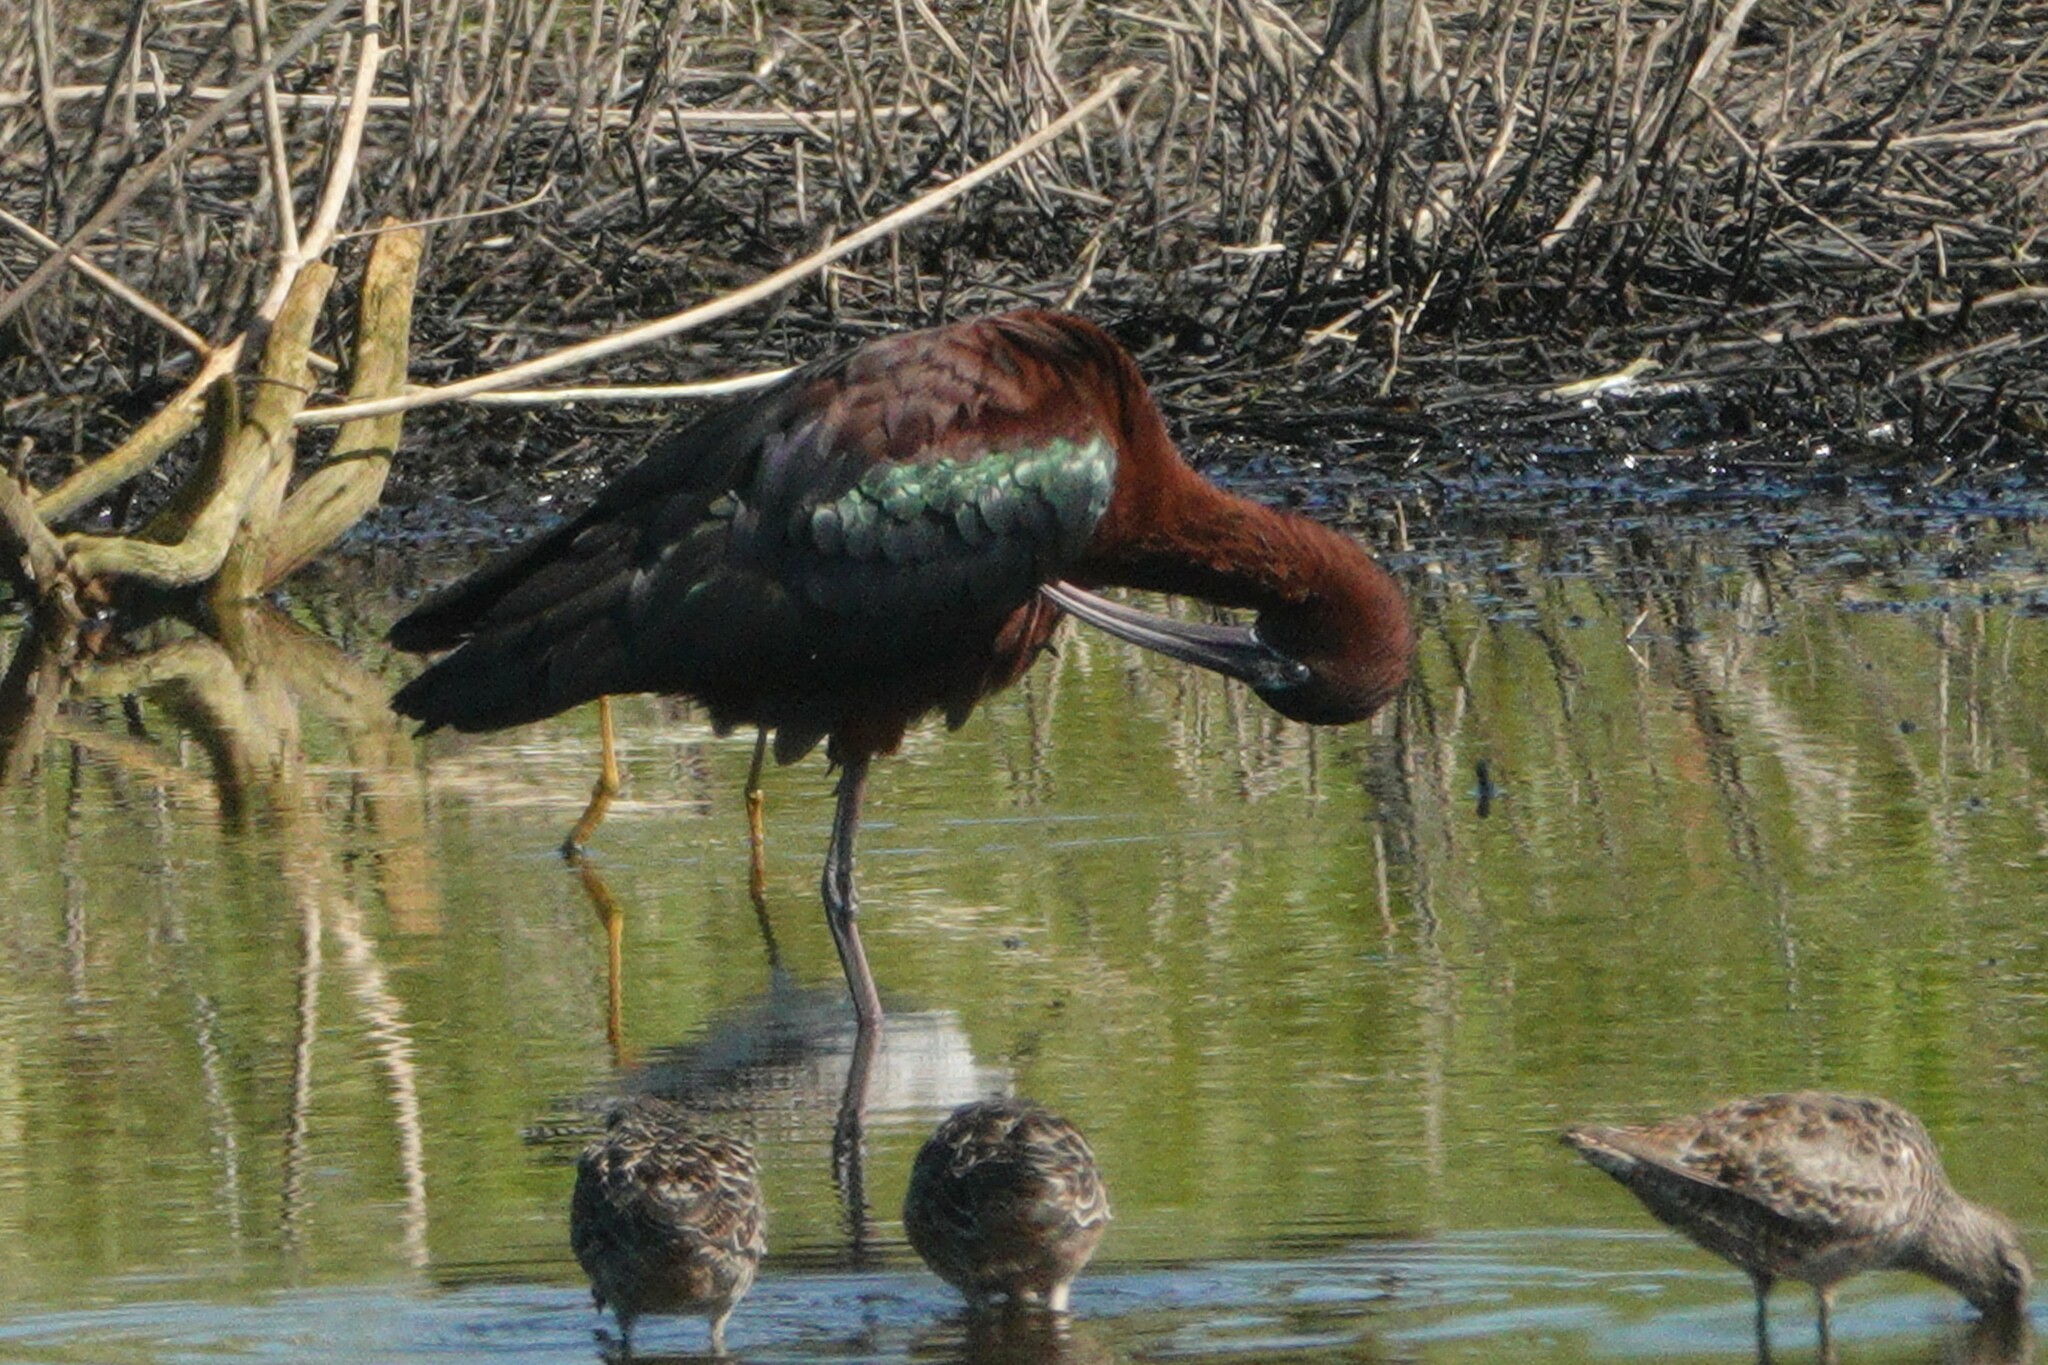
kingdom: Animalia
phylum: Chordata
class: Aves
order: Pelecaniformes
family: Threskiornithidae
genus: Plegadis
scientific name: Plegadis falcinellus
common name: Glossy ibis
